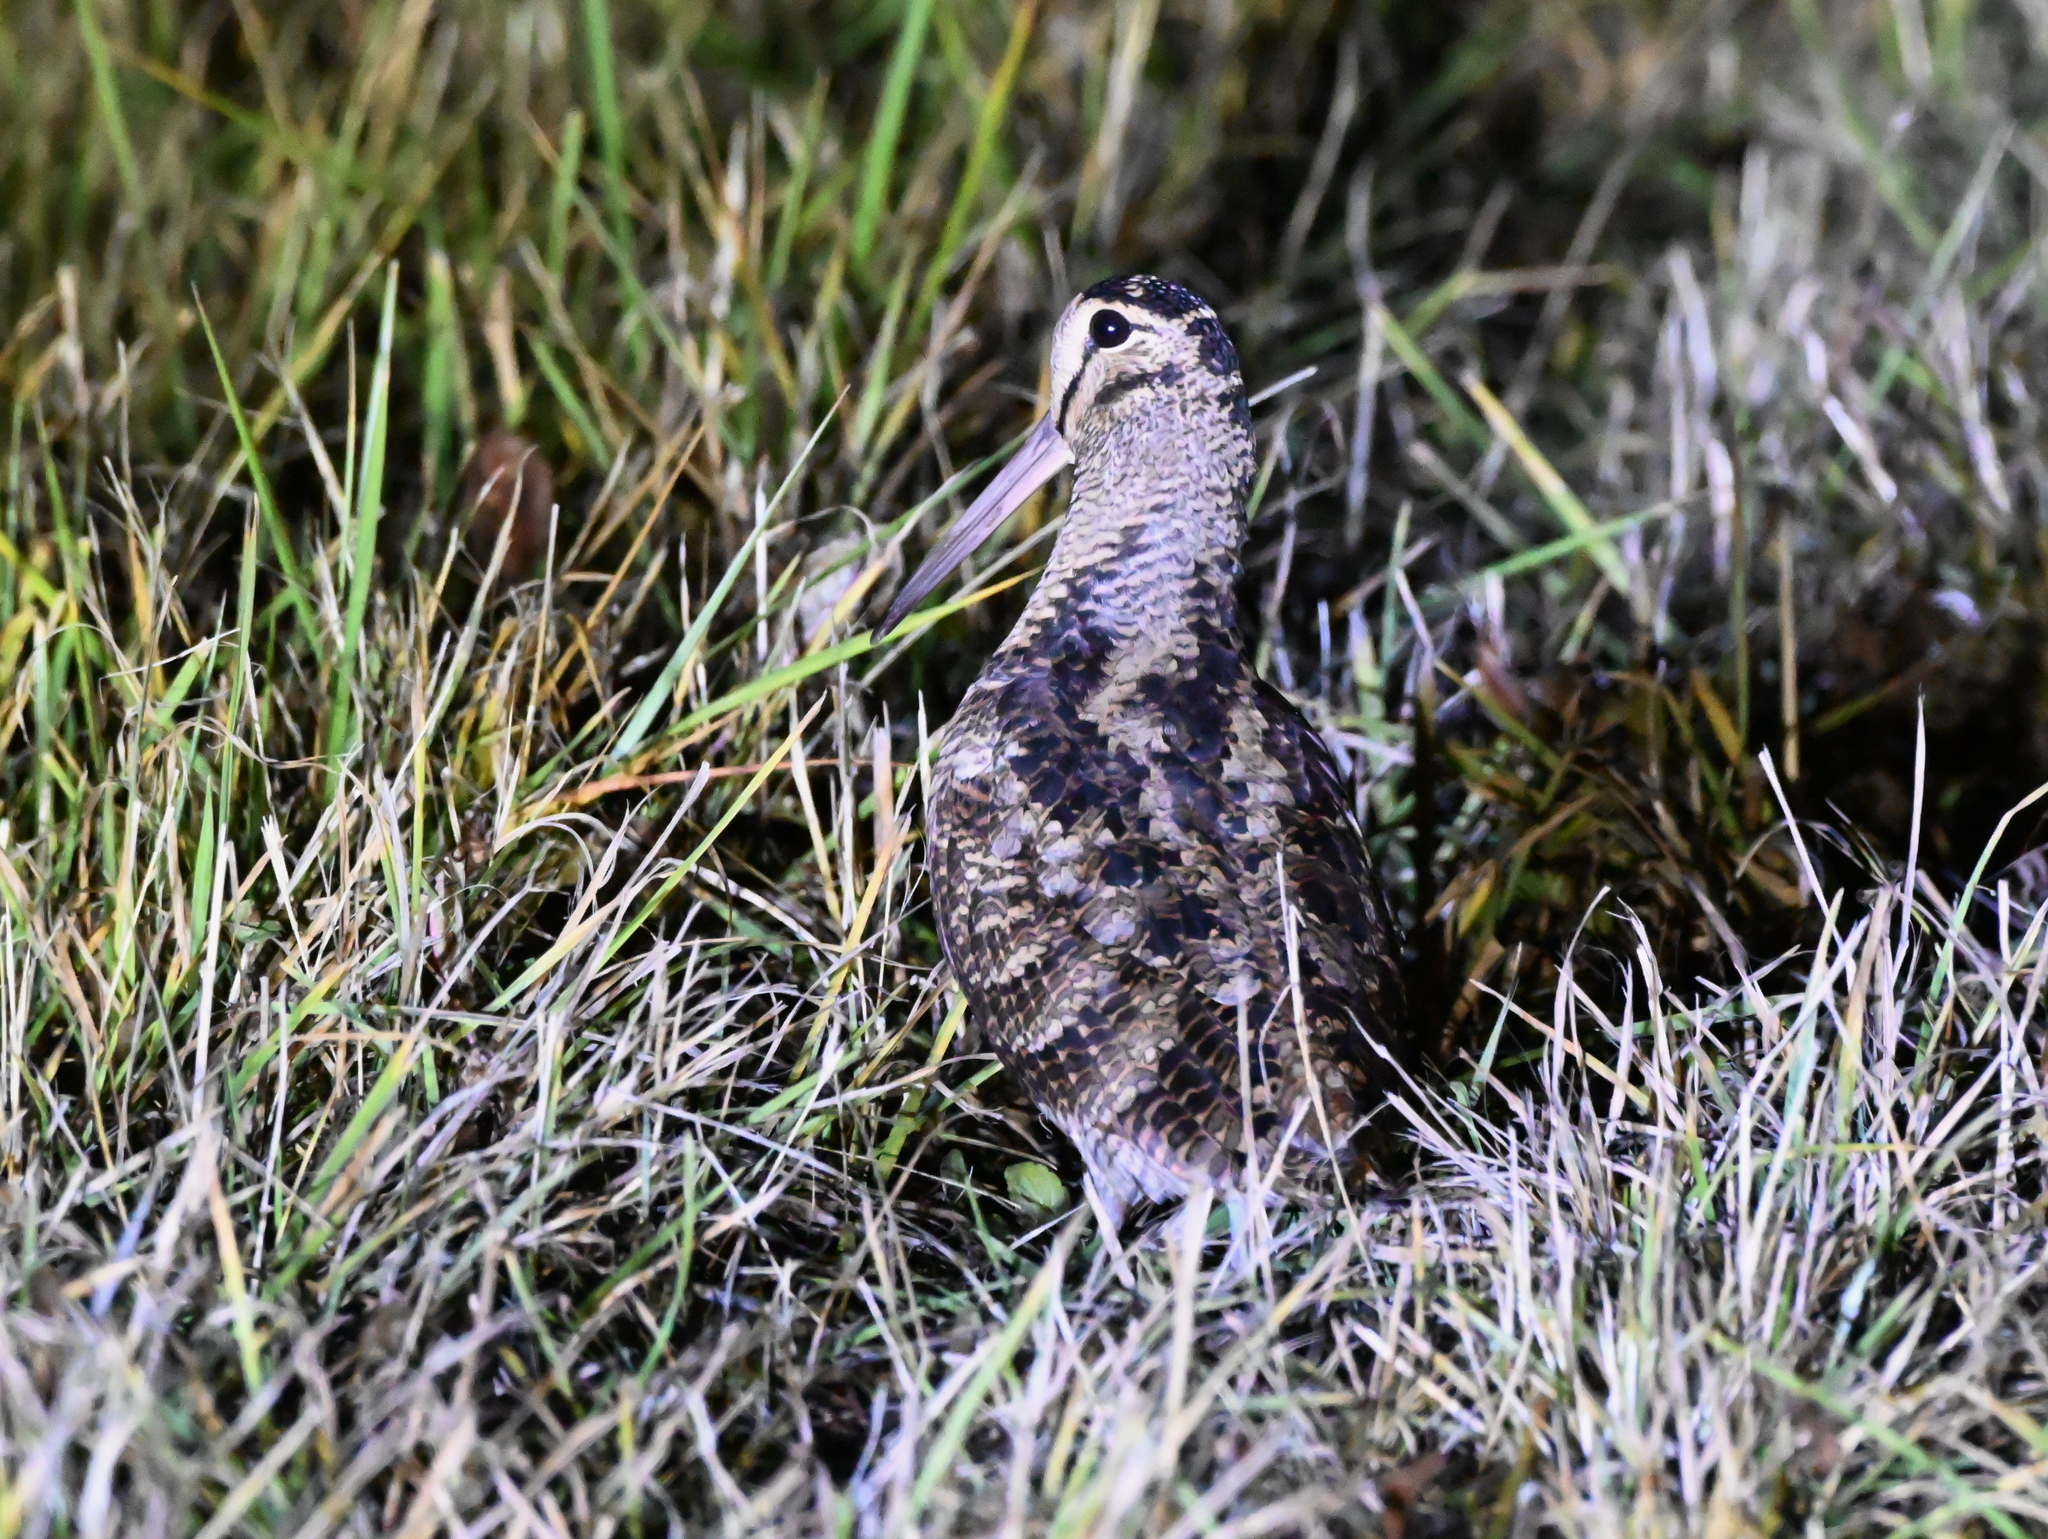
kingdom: Animalia
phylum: Chordata
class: Aves
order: Charadriiformes
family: Scolopacidae
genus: Scolopax
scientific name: Scolopax rusticola
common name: Eurasian woodcock
